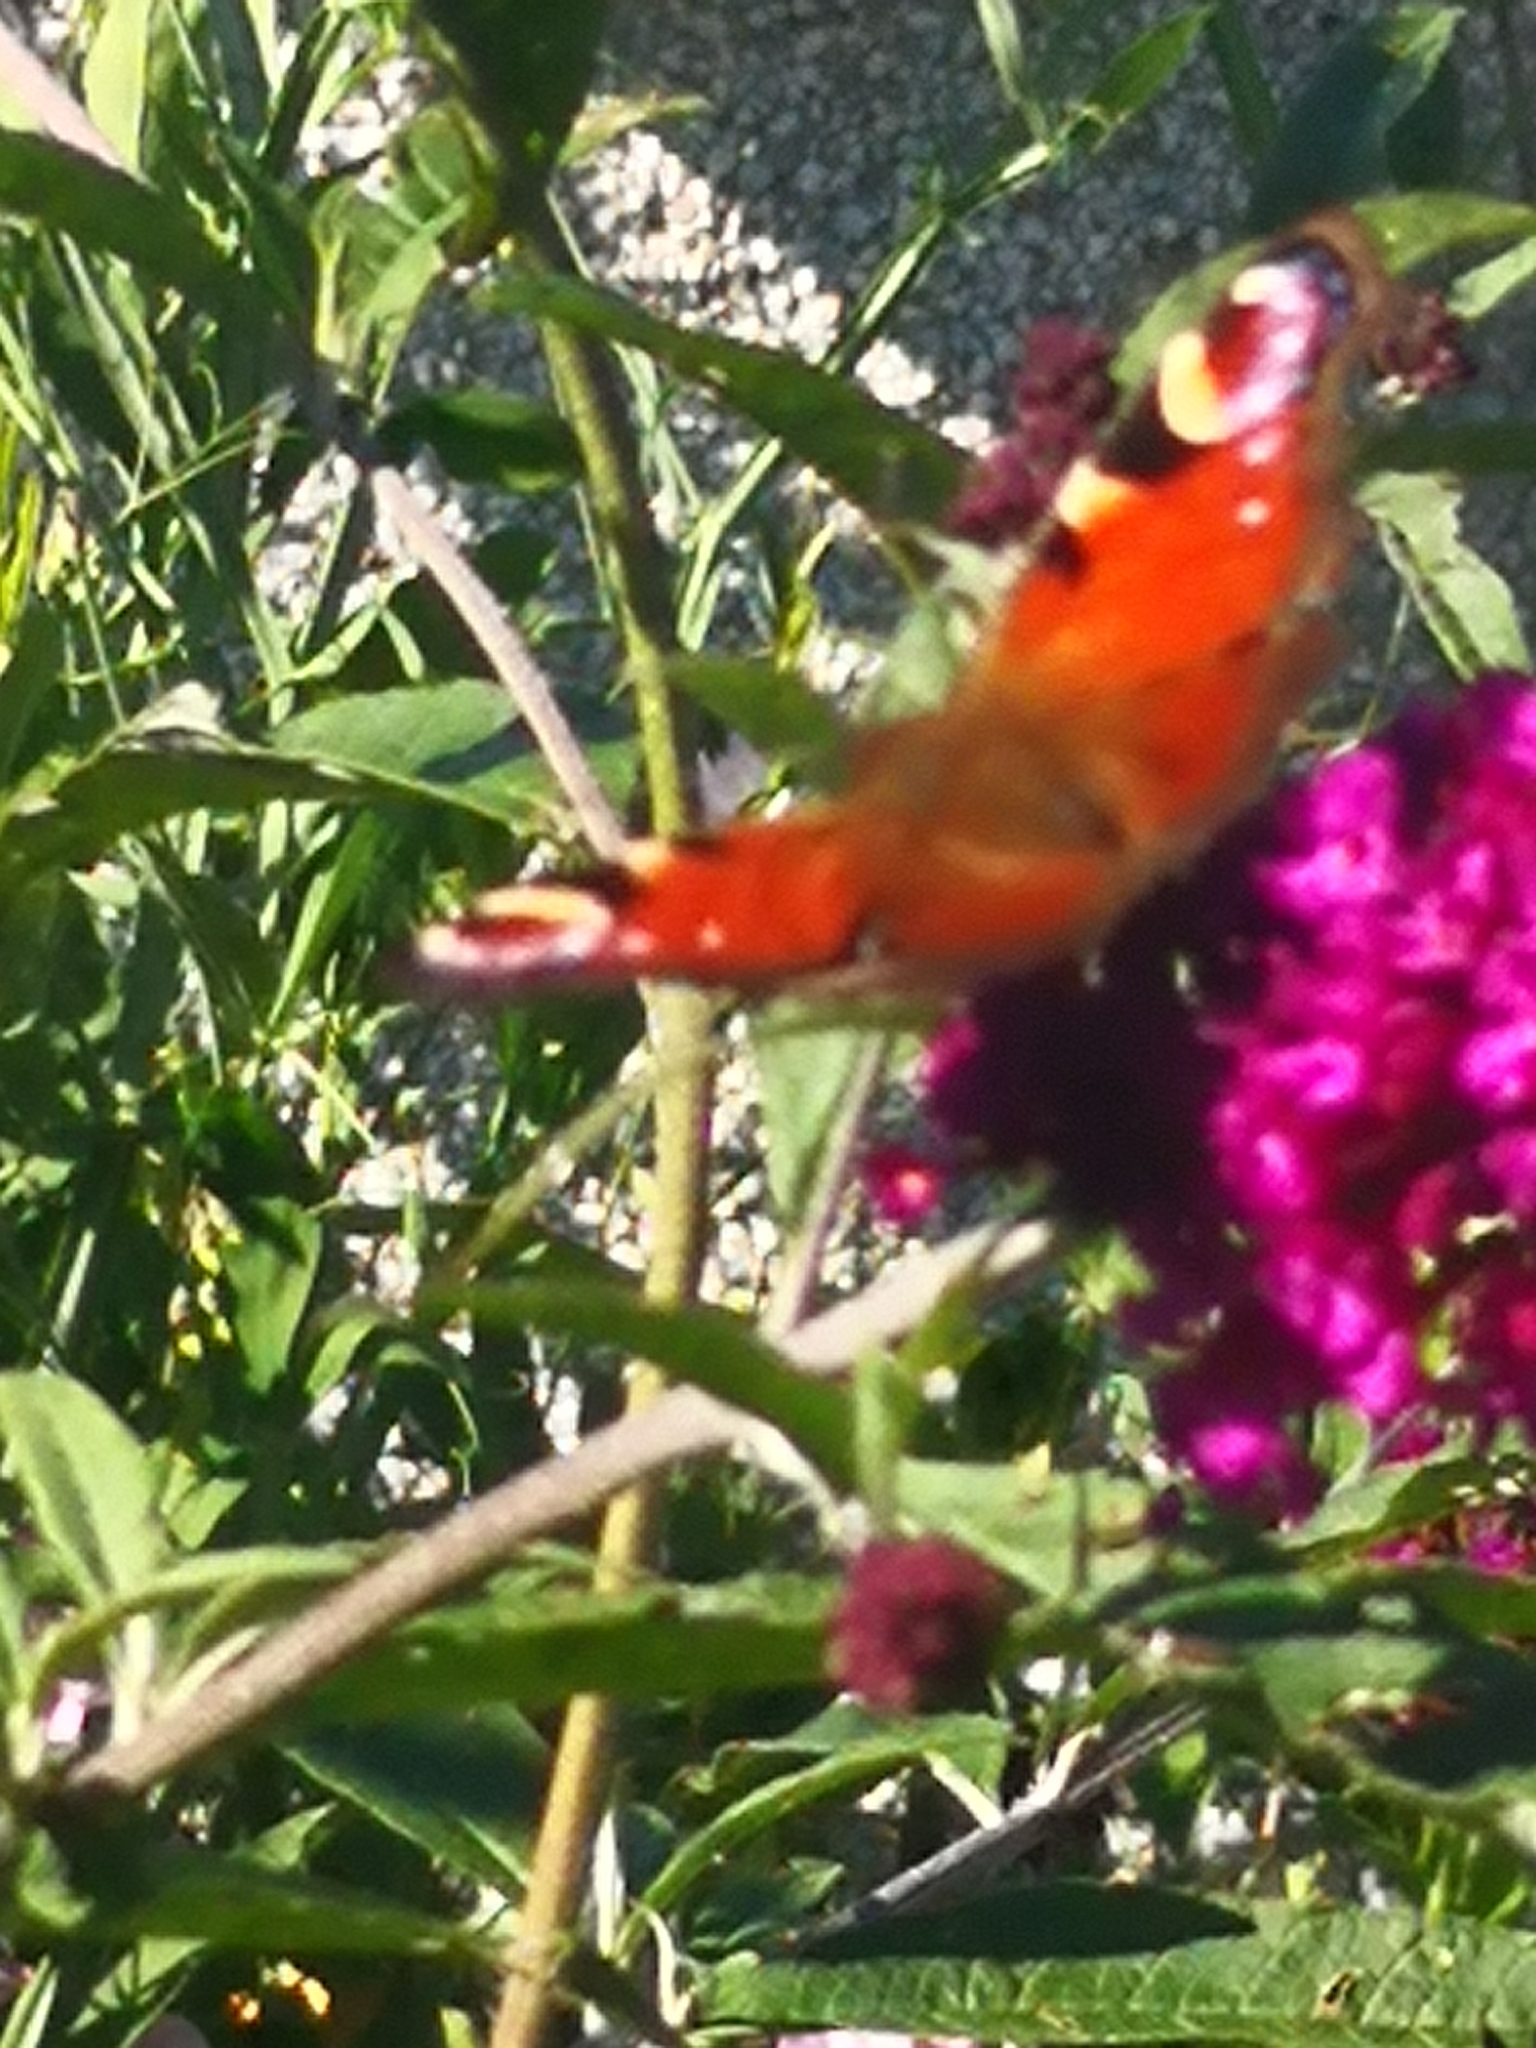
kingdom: Animalia
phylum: Arthropoda
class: Insecta
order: Lepidoptera
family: Nymphalidae
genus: Aglais
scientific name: Aglais io
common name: Peacock
